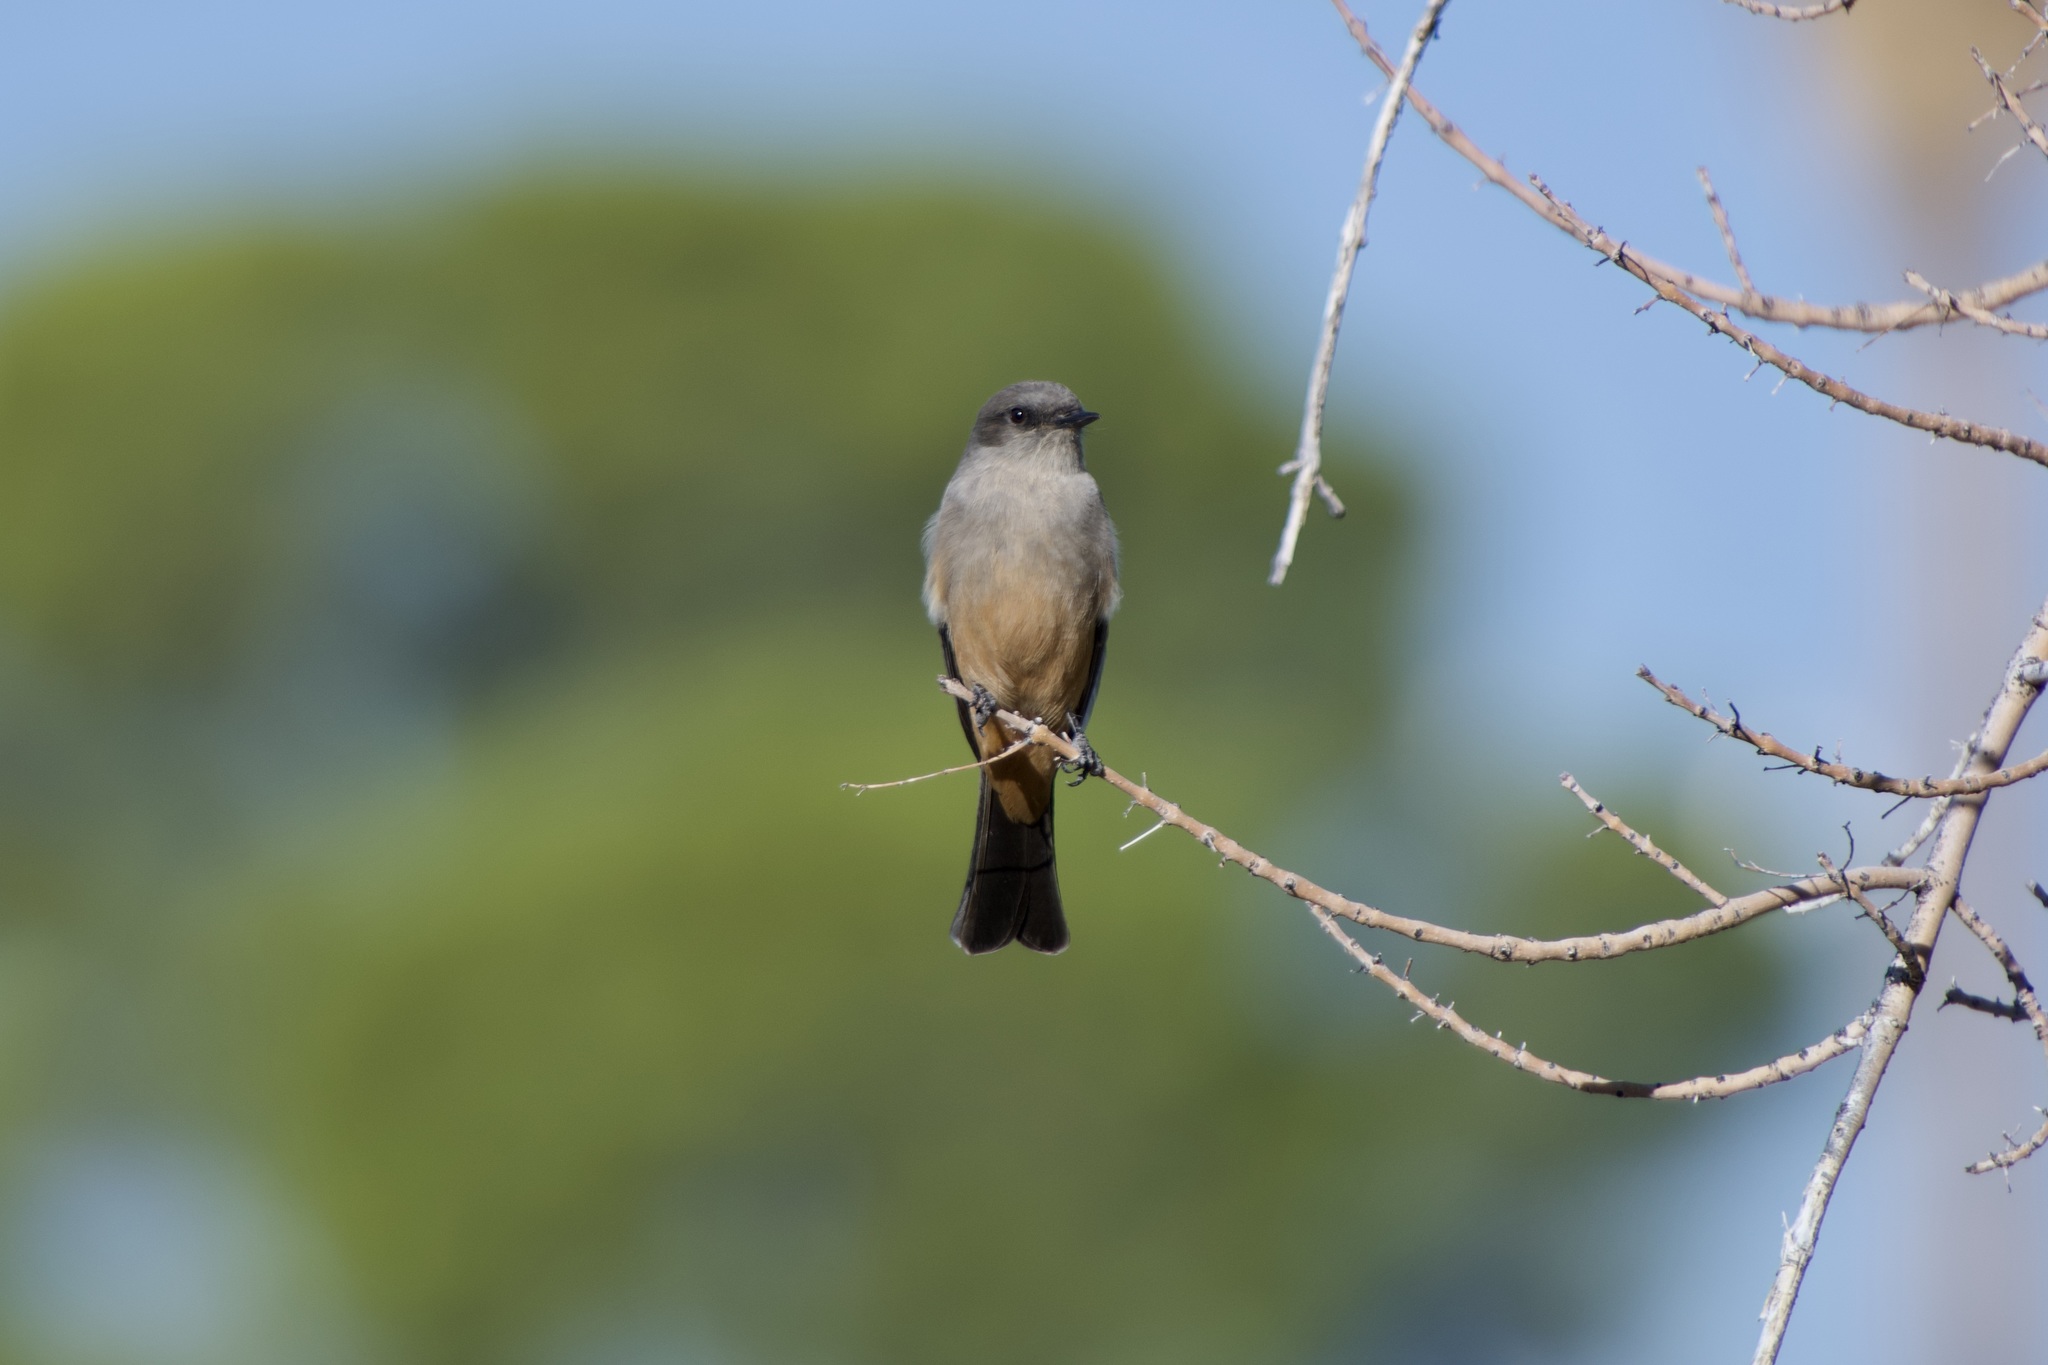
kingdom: Animalia
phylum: Chordata
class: Aves
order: Passeriformes
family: Tyrannidae
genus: Sayornis
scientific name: Sayornis saya
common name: Say's phoebe
